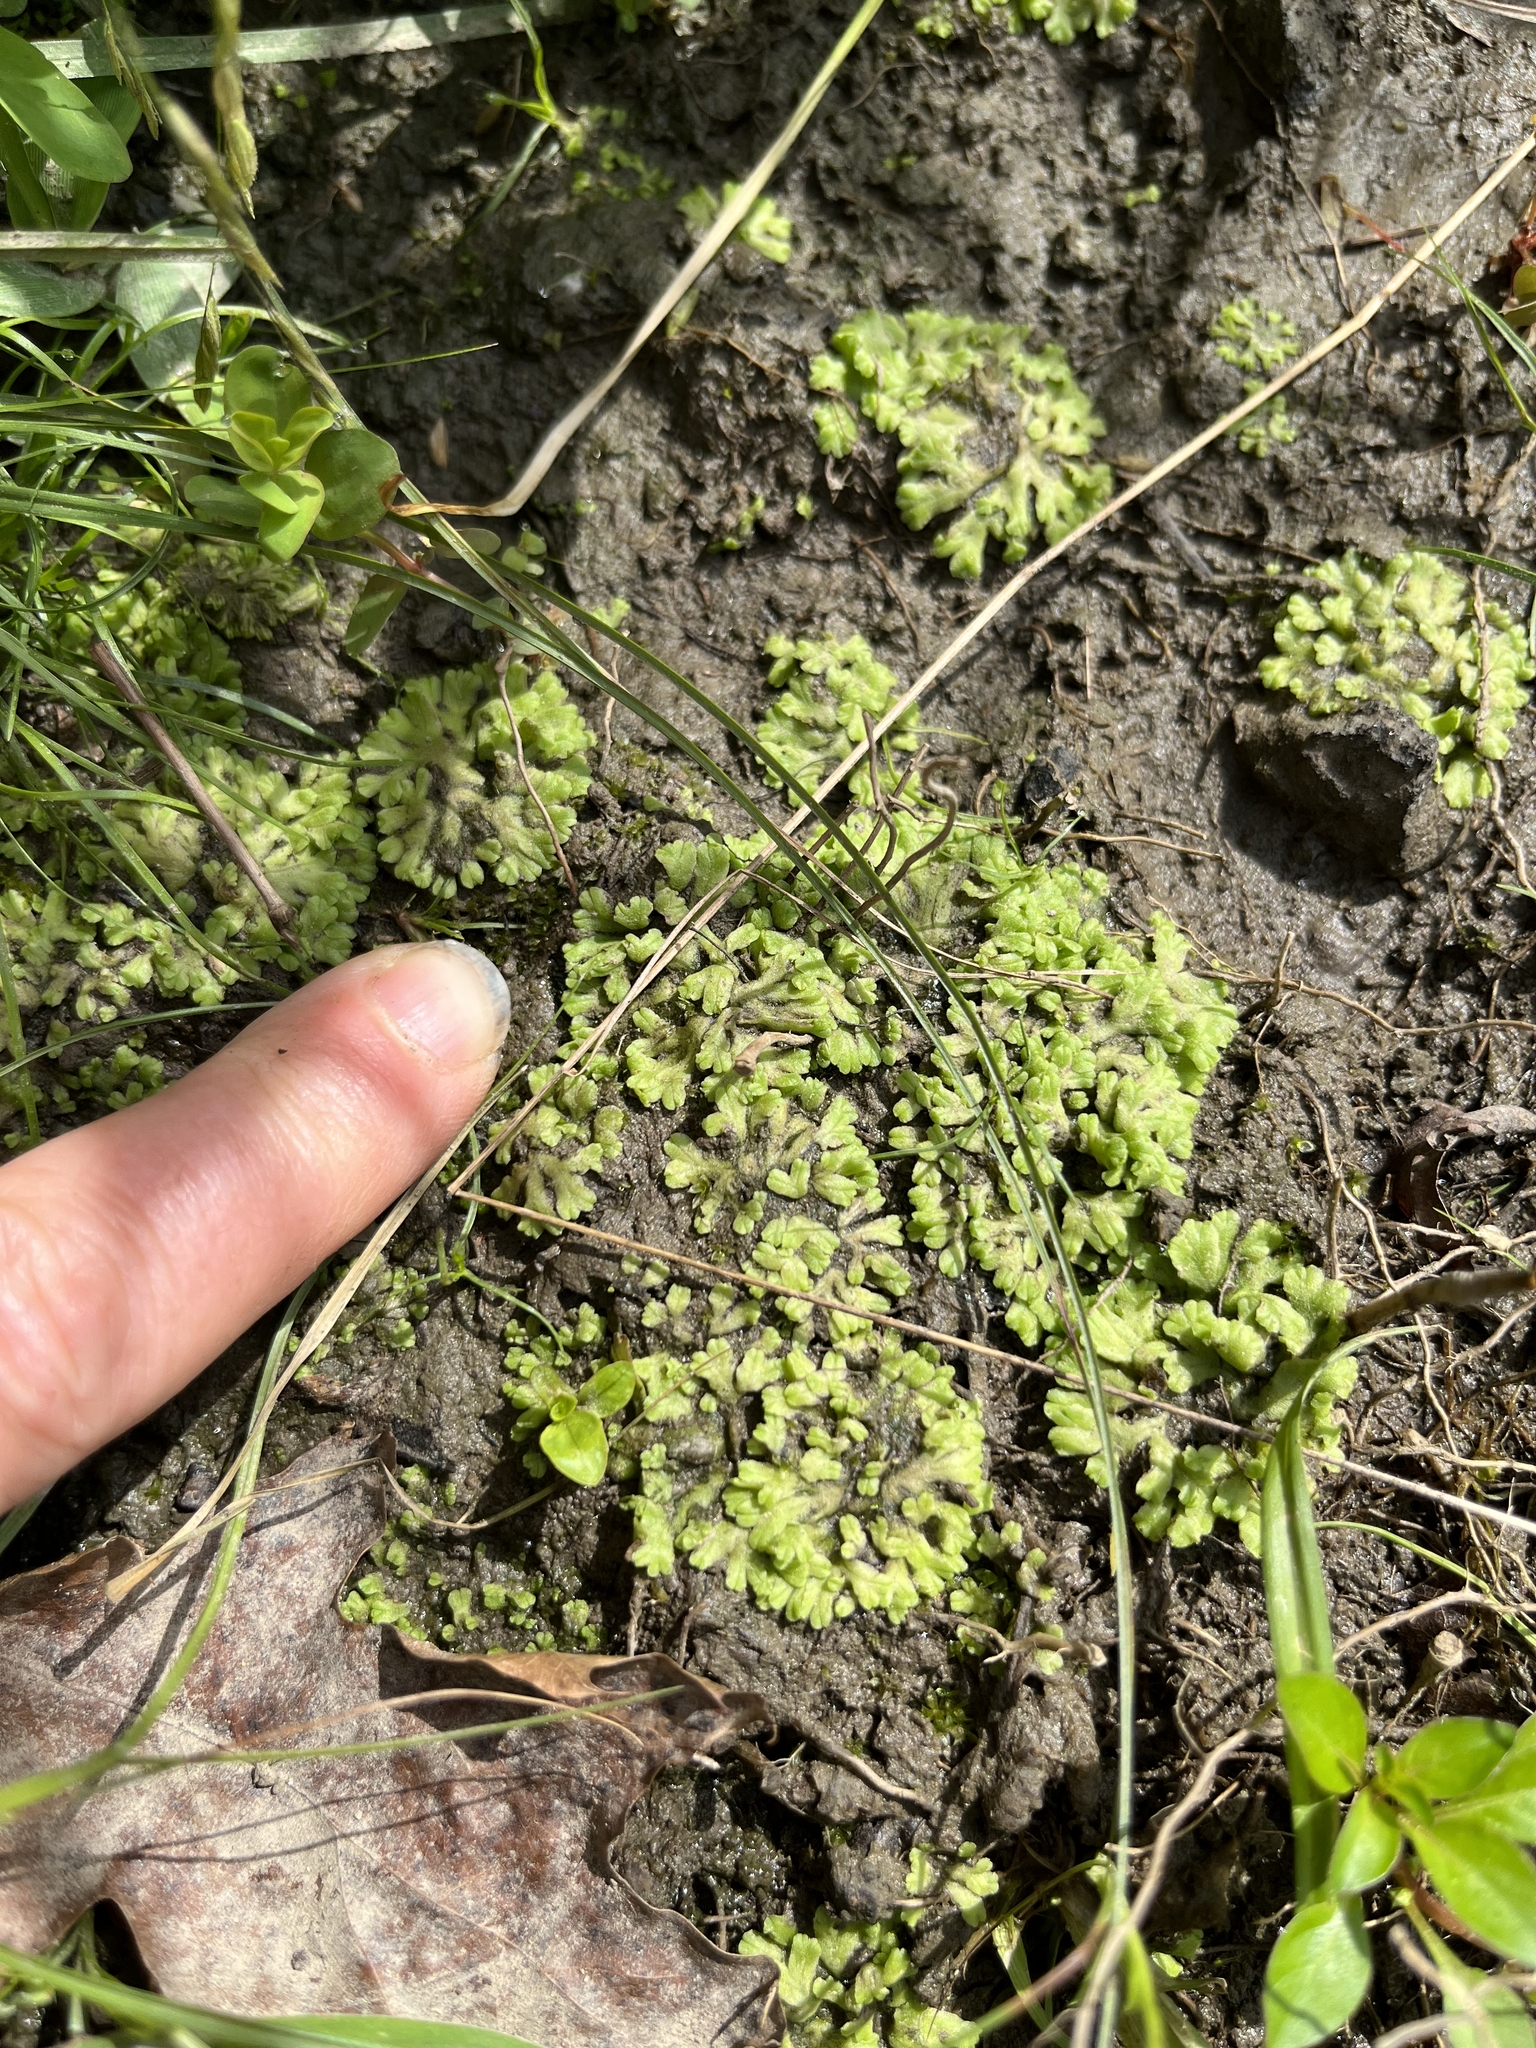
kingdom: Plantae
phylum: Marchantiophyta
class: Marchantiopsida
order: Marchantiales
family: Ricciaceae
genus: Ricciocarpos
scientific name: Ricciocarpos natans
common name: Purple-fringed liverwort
